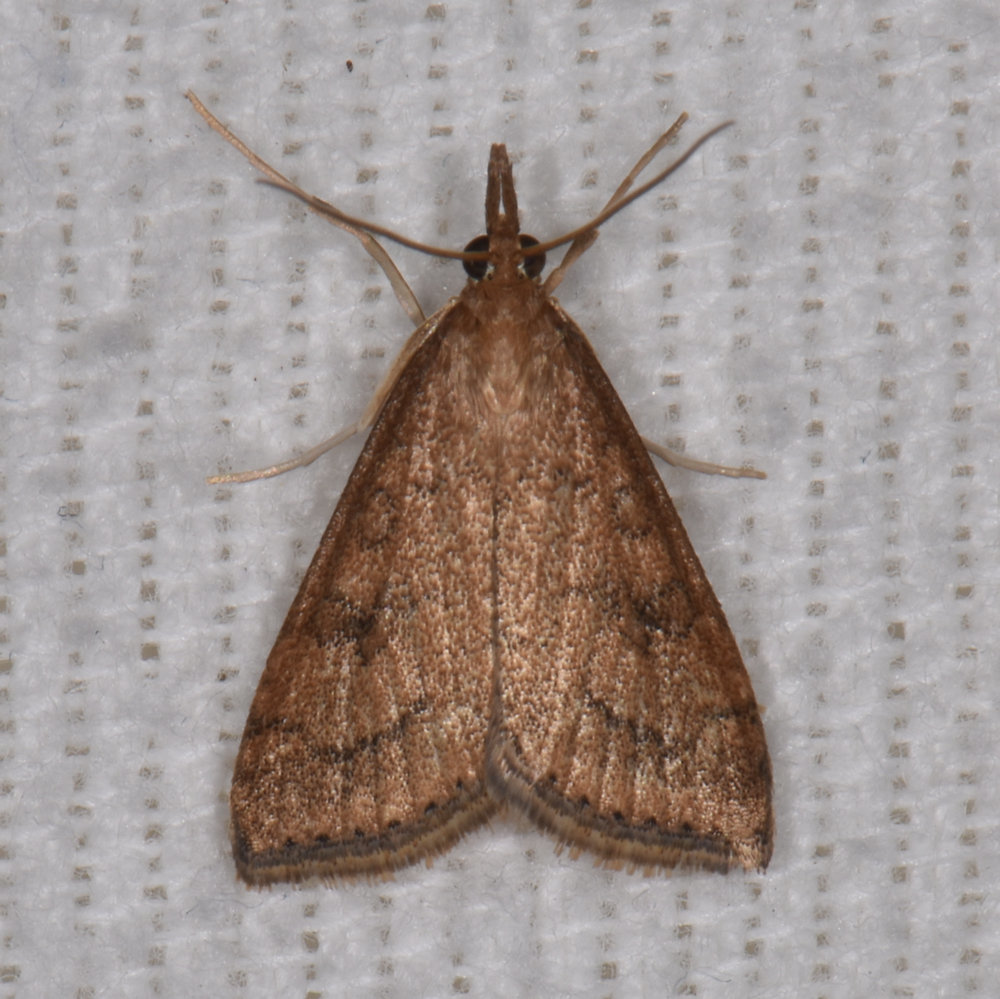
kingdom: Animalia
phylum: Arthropoda
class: Insecta
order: Lepidoptera
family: Crambidae
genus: Udea
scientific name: Udea rubigalis
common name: Celery leaftier moth
